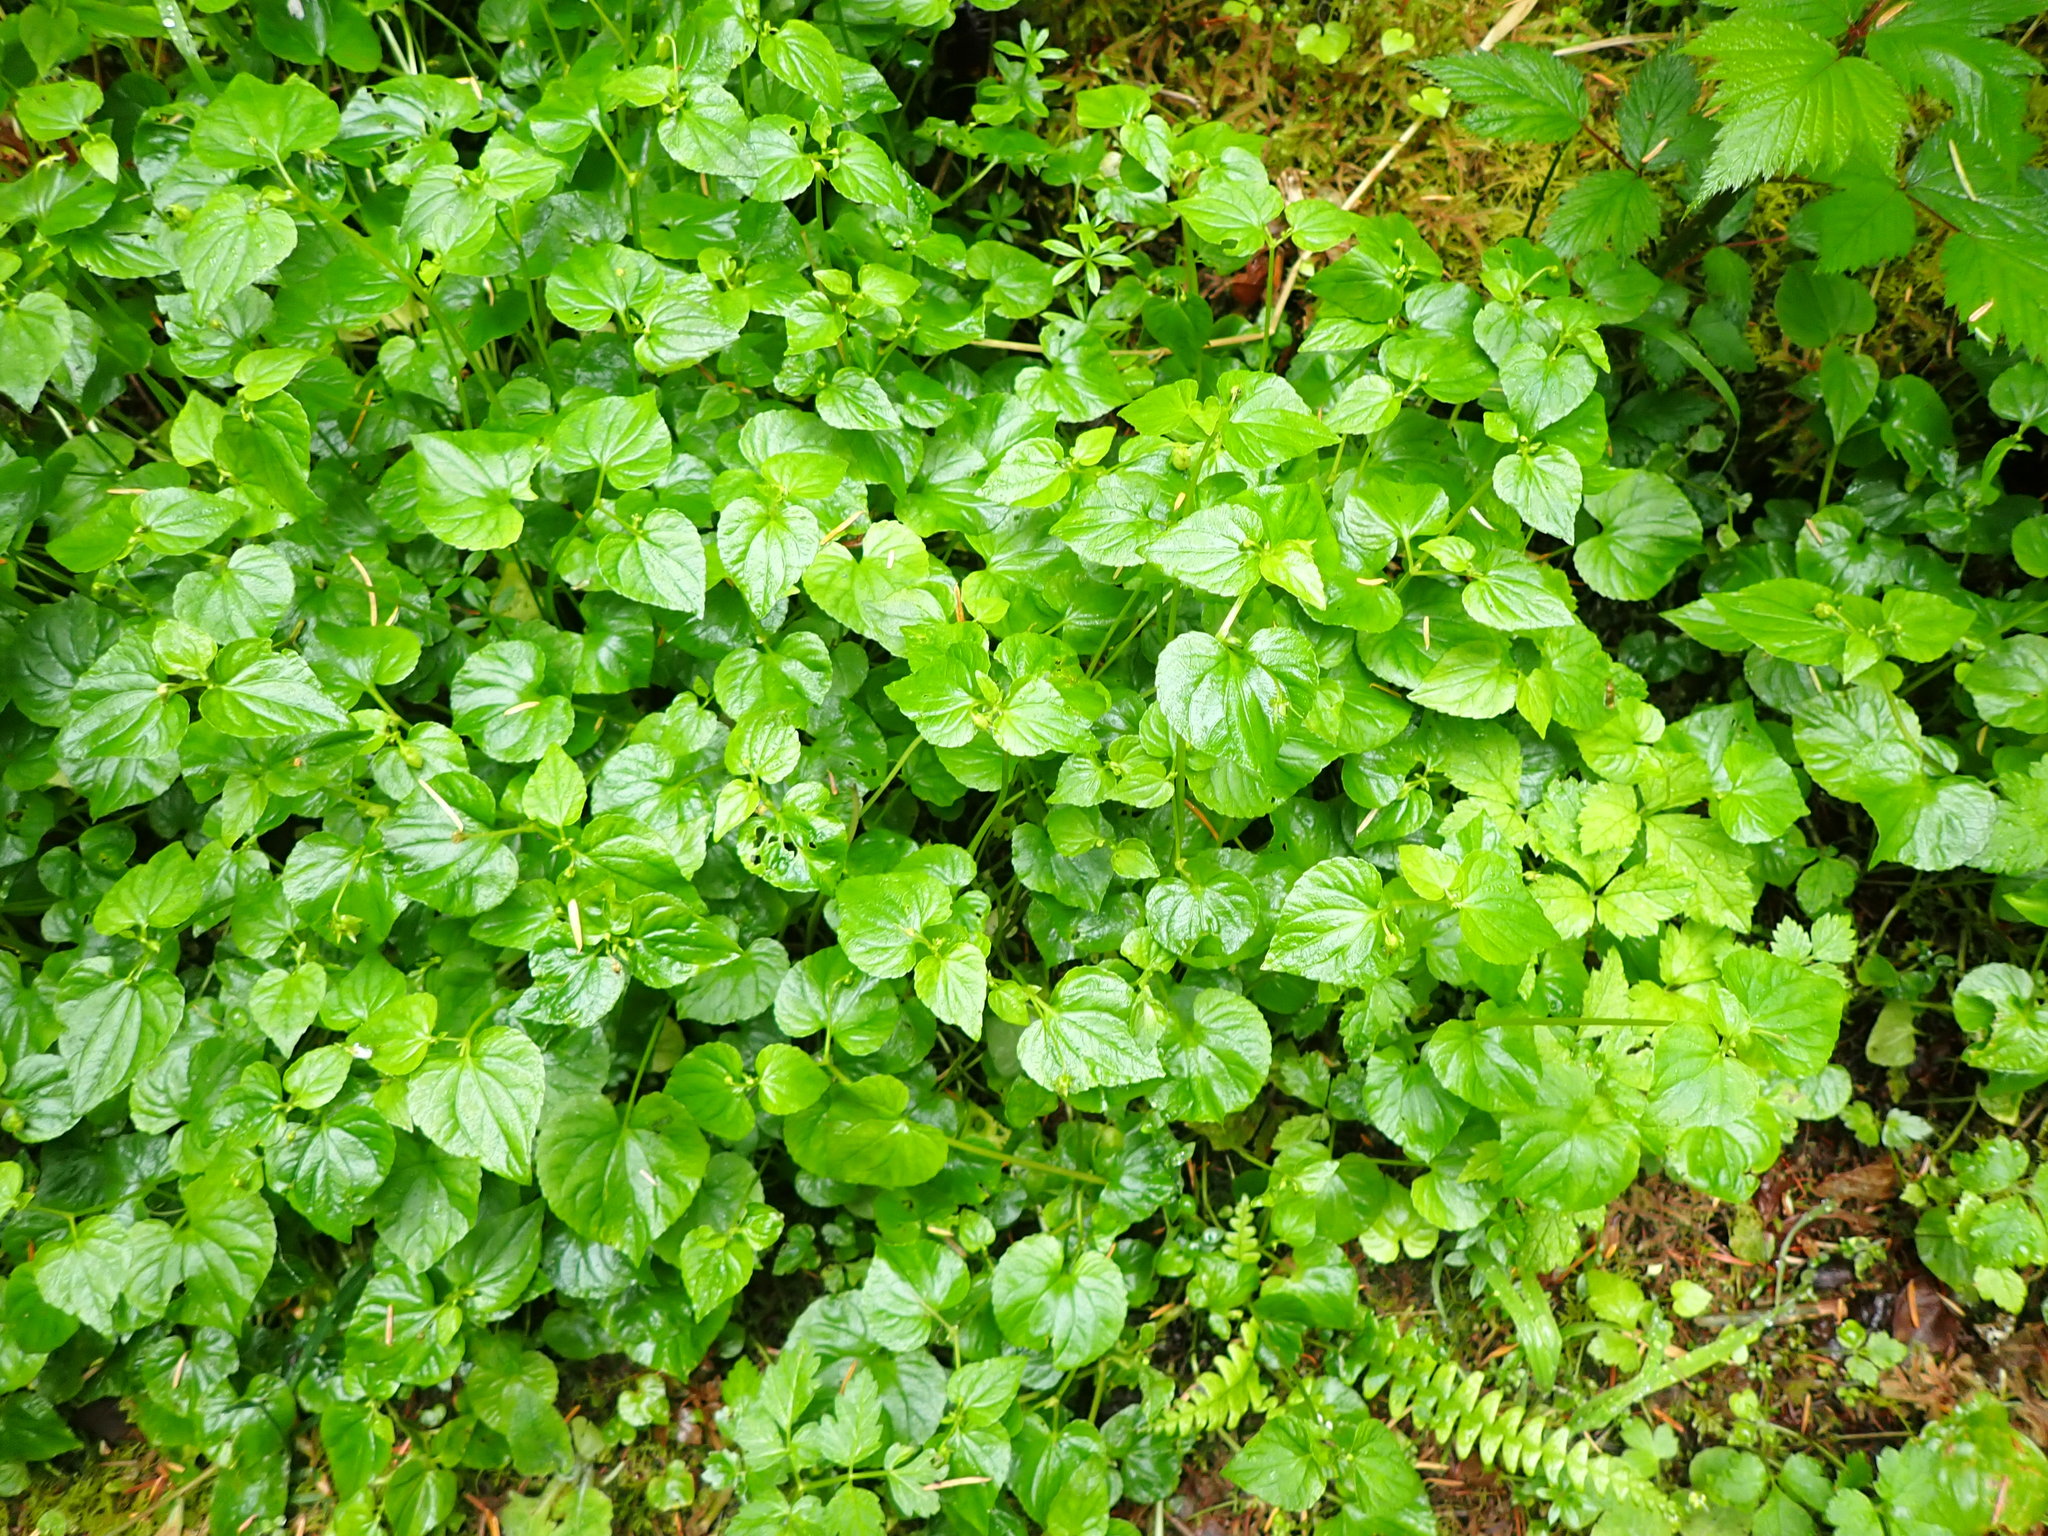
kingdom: Plantae
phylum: Tracheophyta
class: Magnoliopsida
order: Malpighiales
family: Violaceae
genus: Viola
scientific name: Viola glabella
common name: Stream violet
